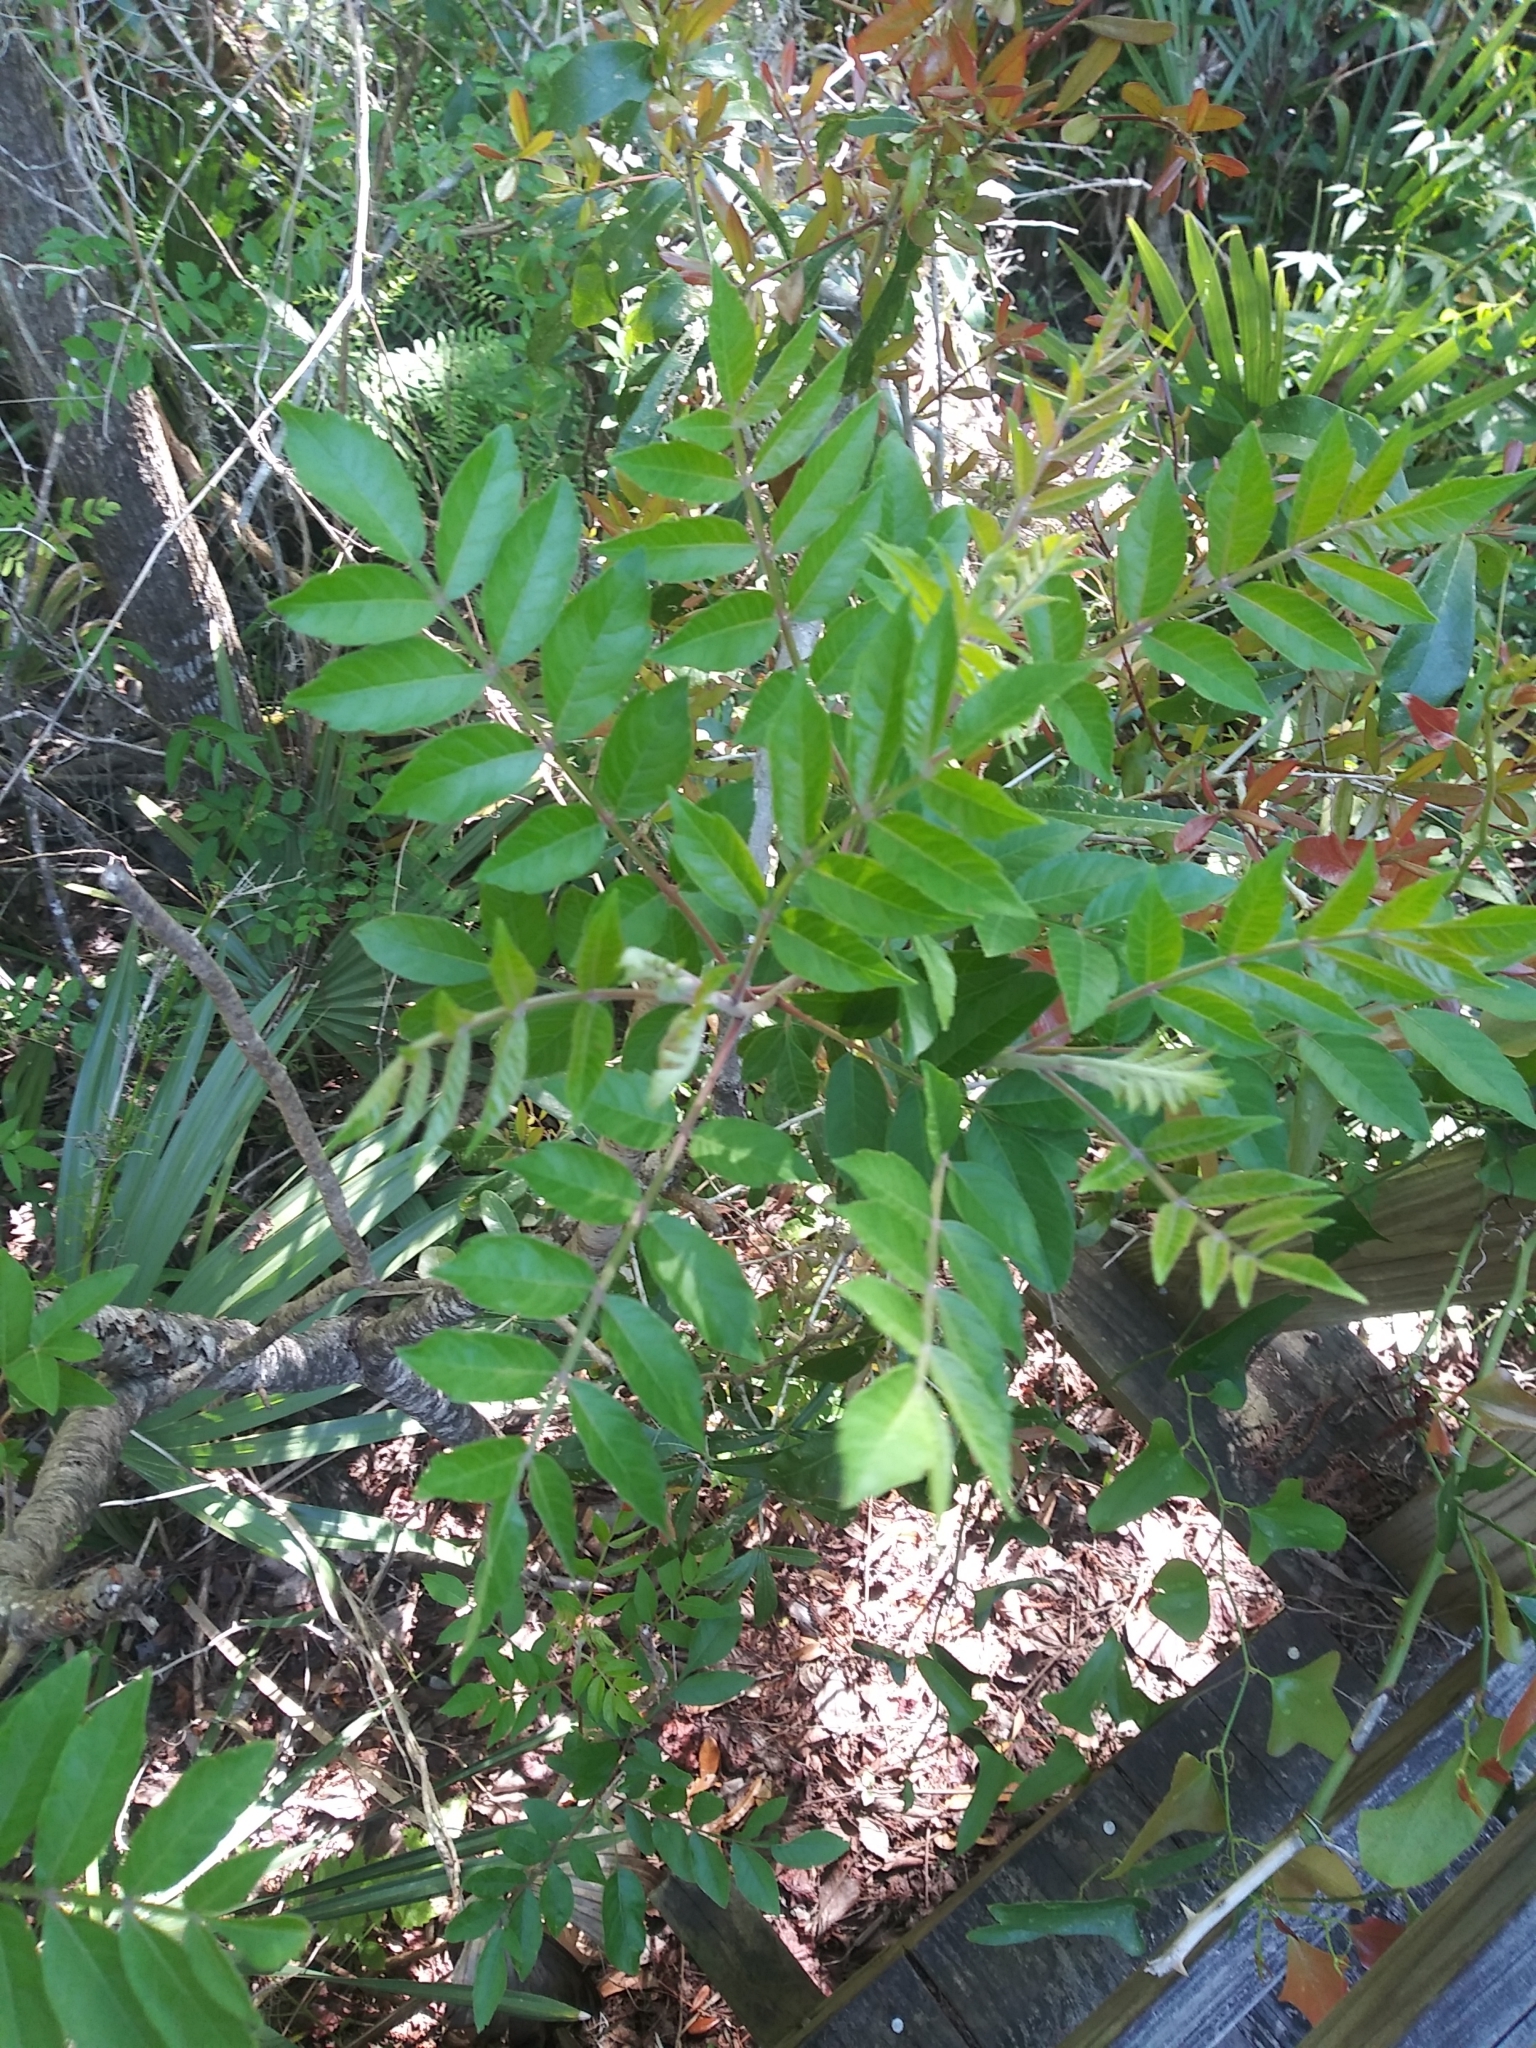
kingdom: Plantae
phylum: Tracheophyta
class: Magnoliopsida
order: Sapindales
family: Anacardiaceae
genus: Rhus
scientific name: Rhus copallina
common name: Shining sumac
